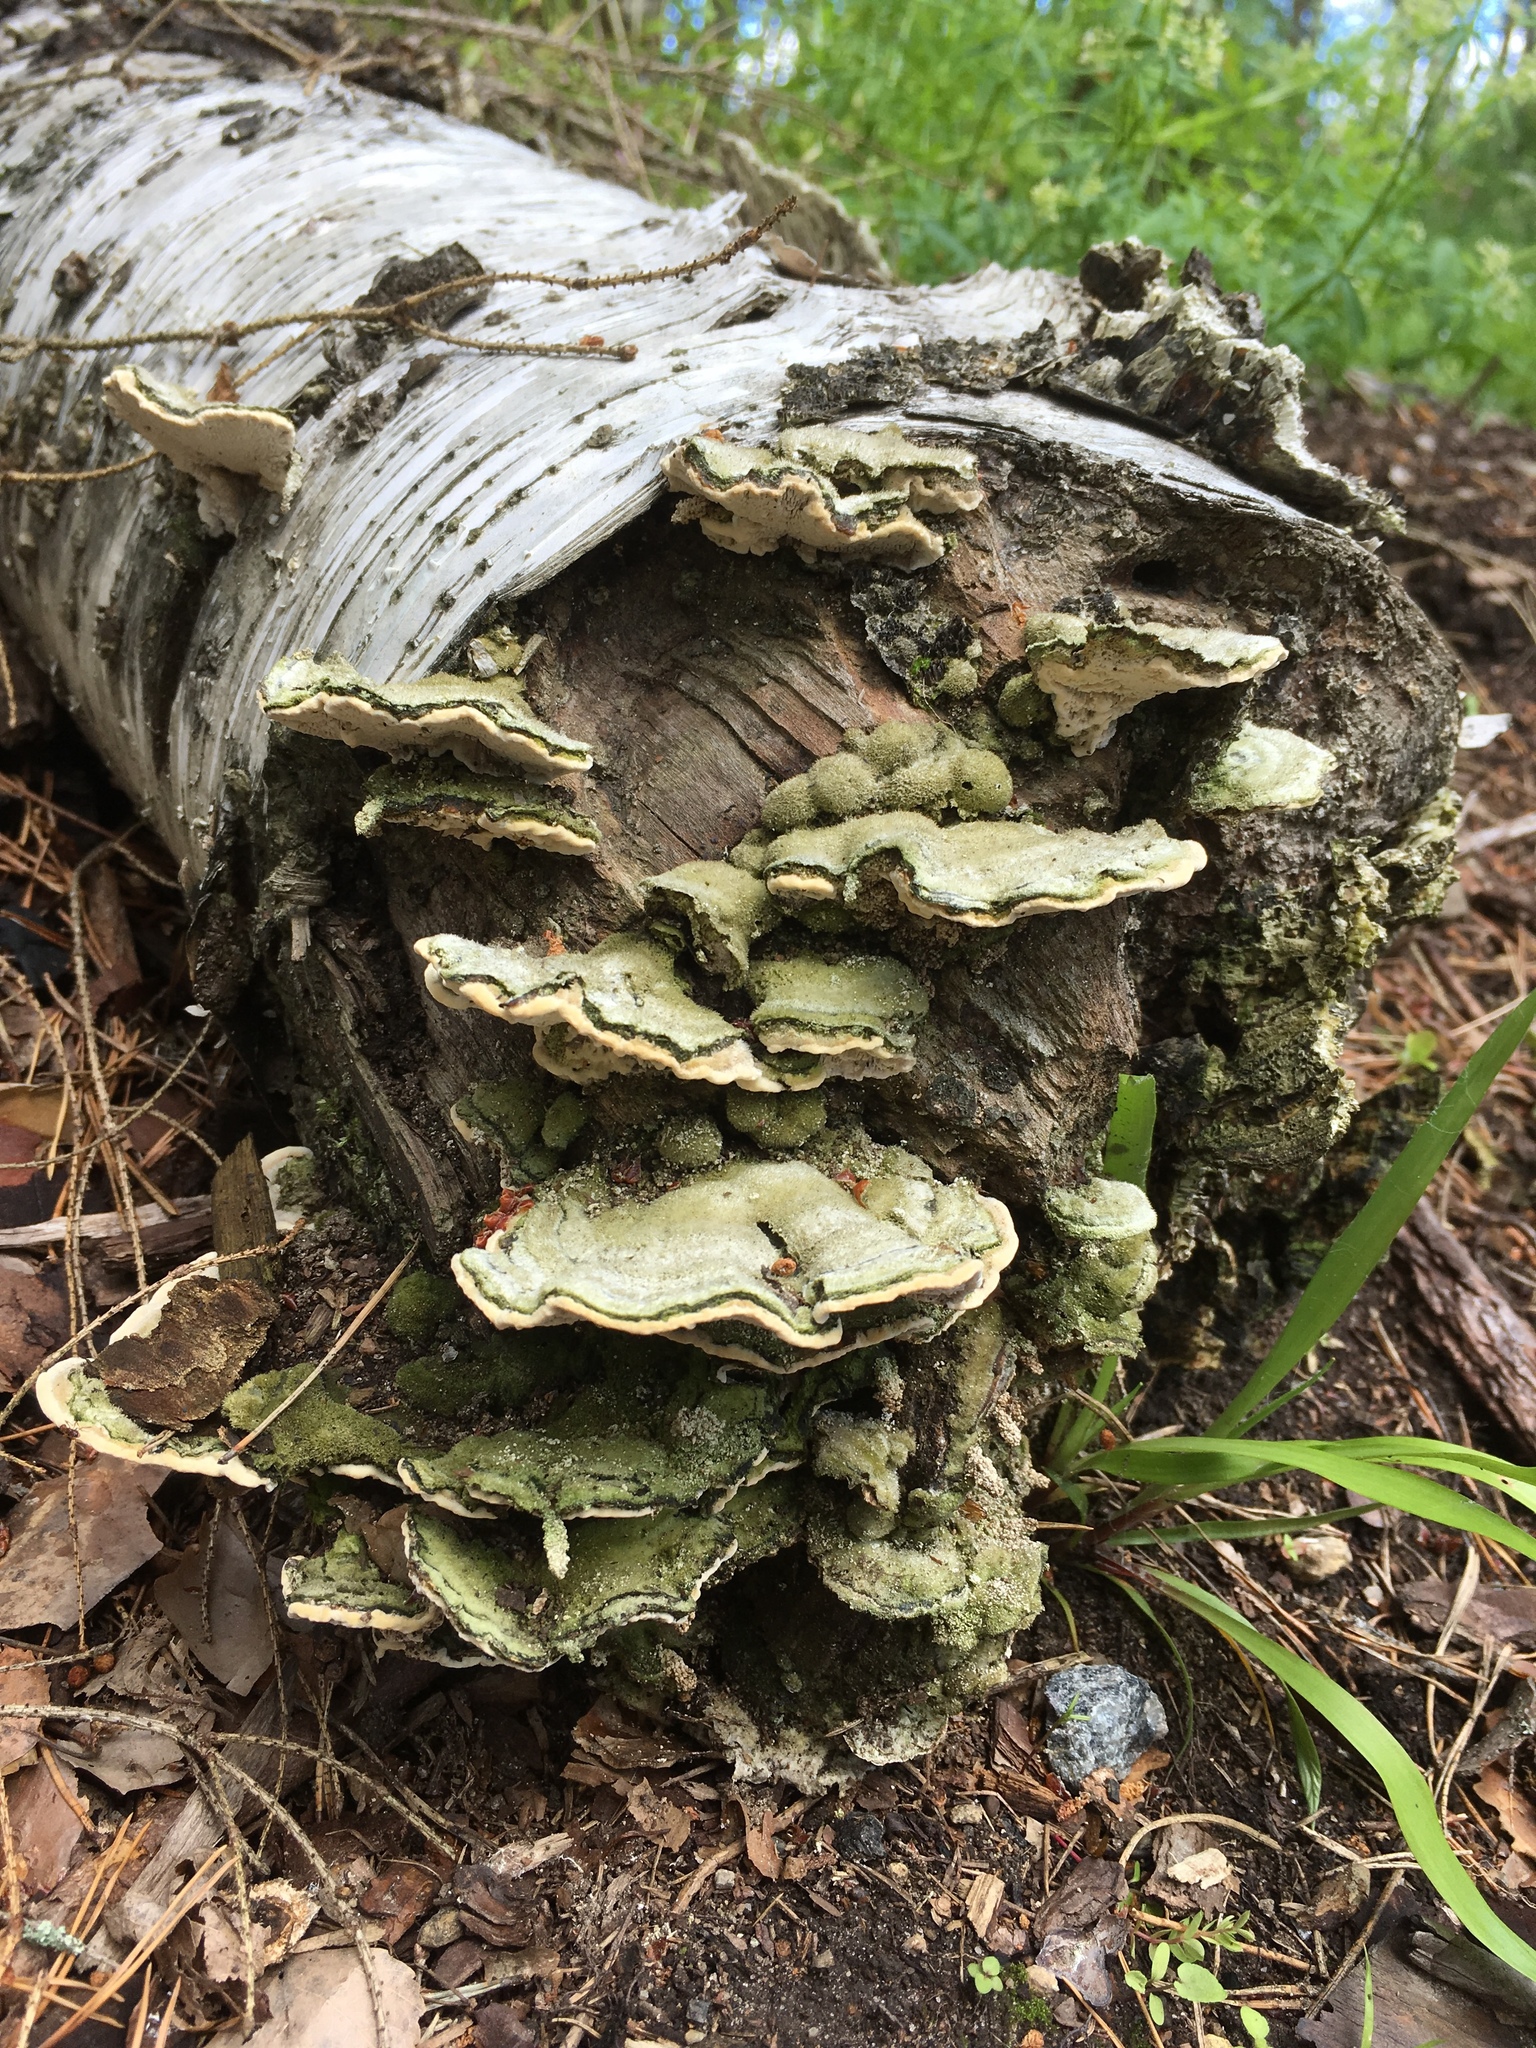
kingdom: Fungi
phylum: Basidiomycota
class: Agaricomycetes
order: Polyporales
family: Cerrenaceae
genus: Cerrena
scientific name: Cerrena unicolor
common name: Mossy maze polypore
